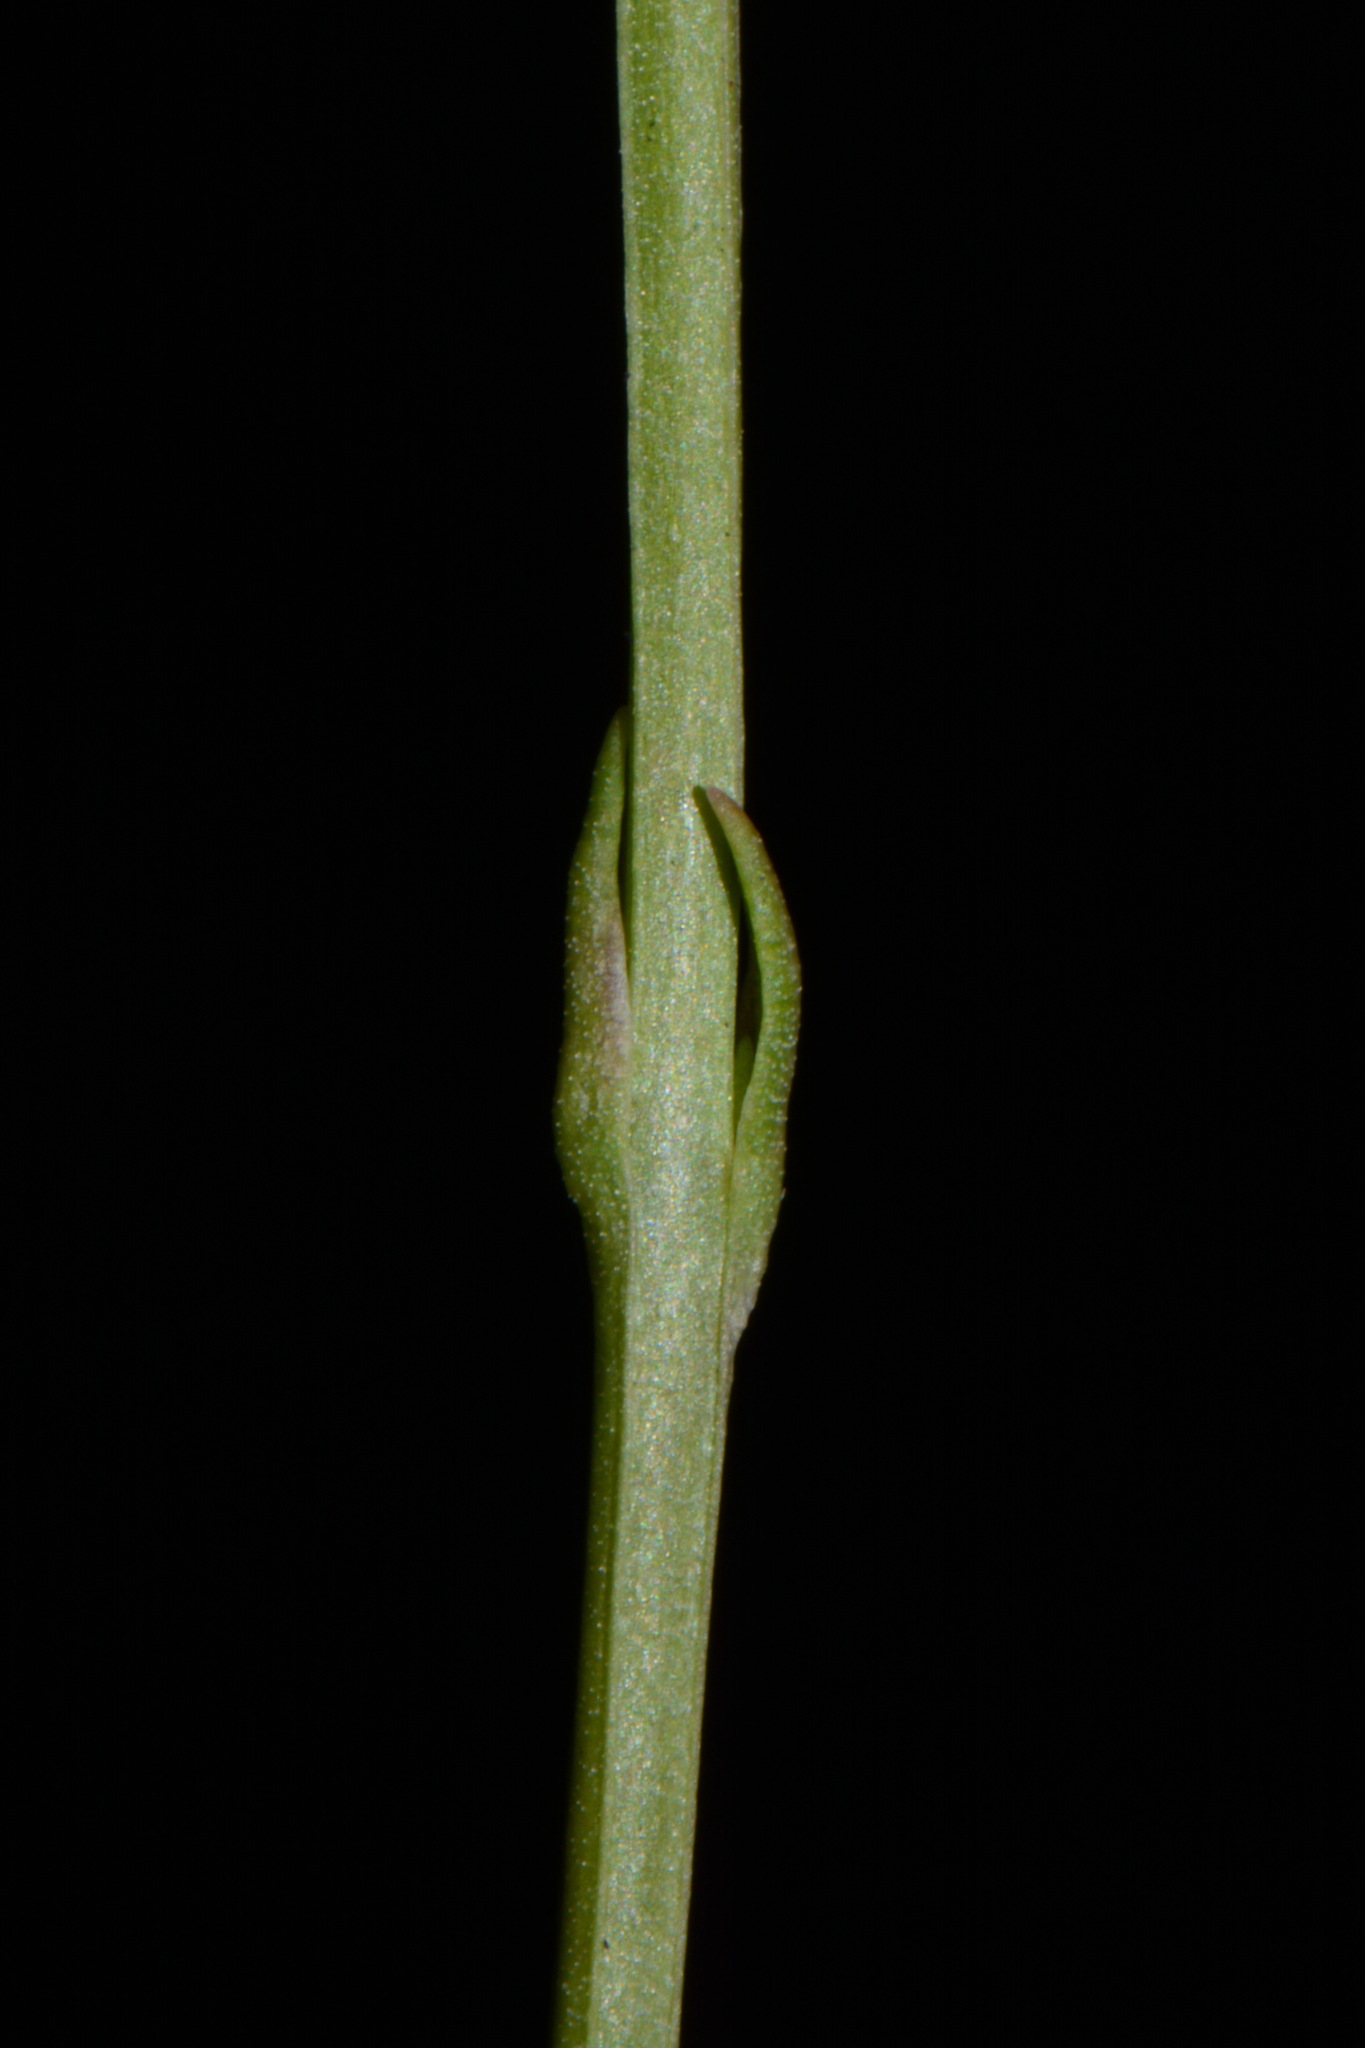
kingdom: Plantae
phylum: Tracheophyta
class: Magnoliopsida
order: Gentianales
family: Gentianaceae
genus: Bartonia
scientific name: Bartonia virginica
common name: Yellow bartonia
